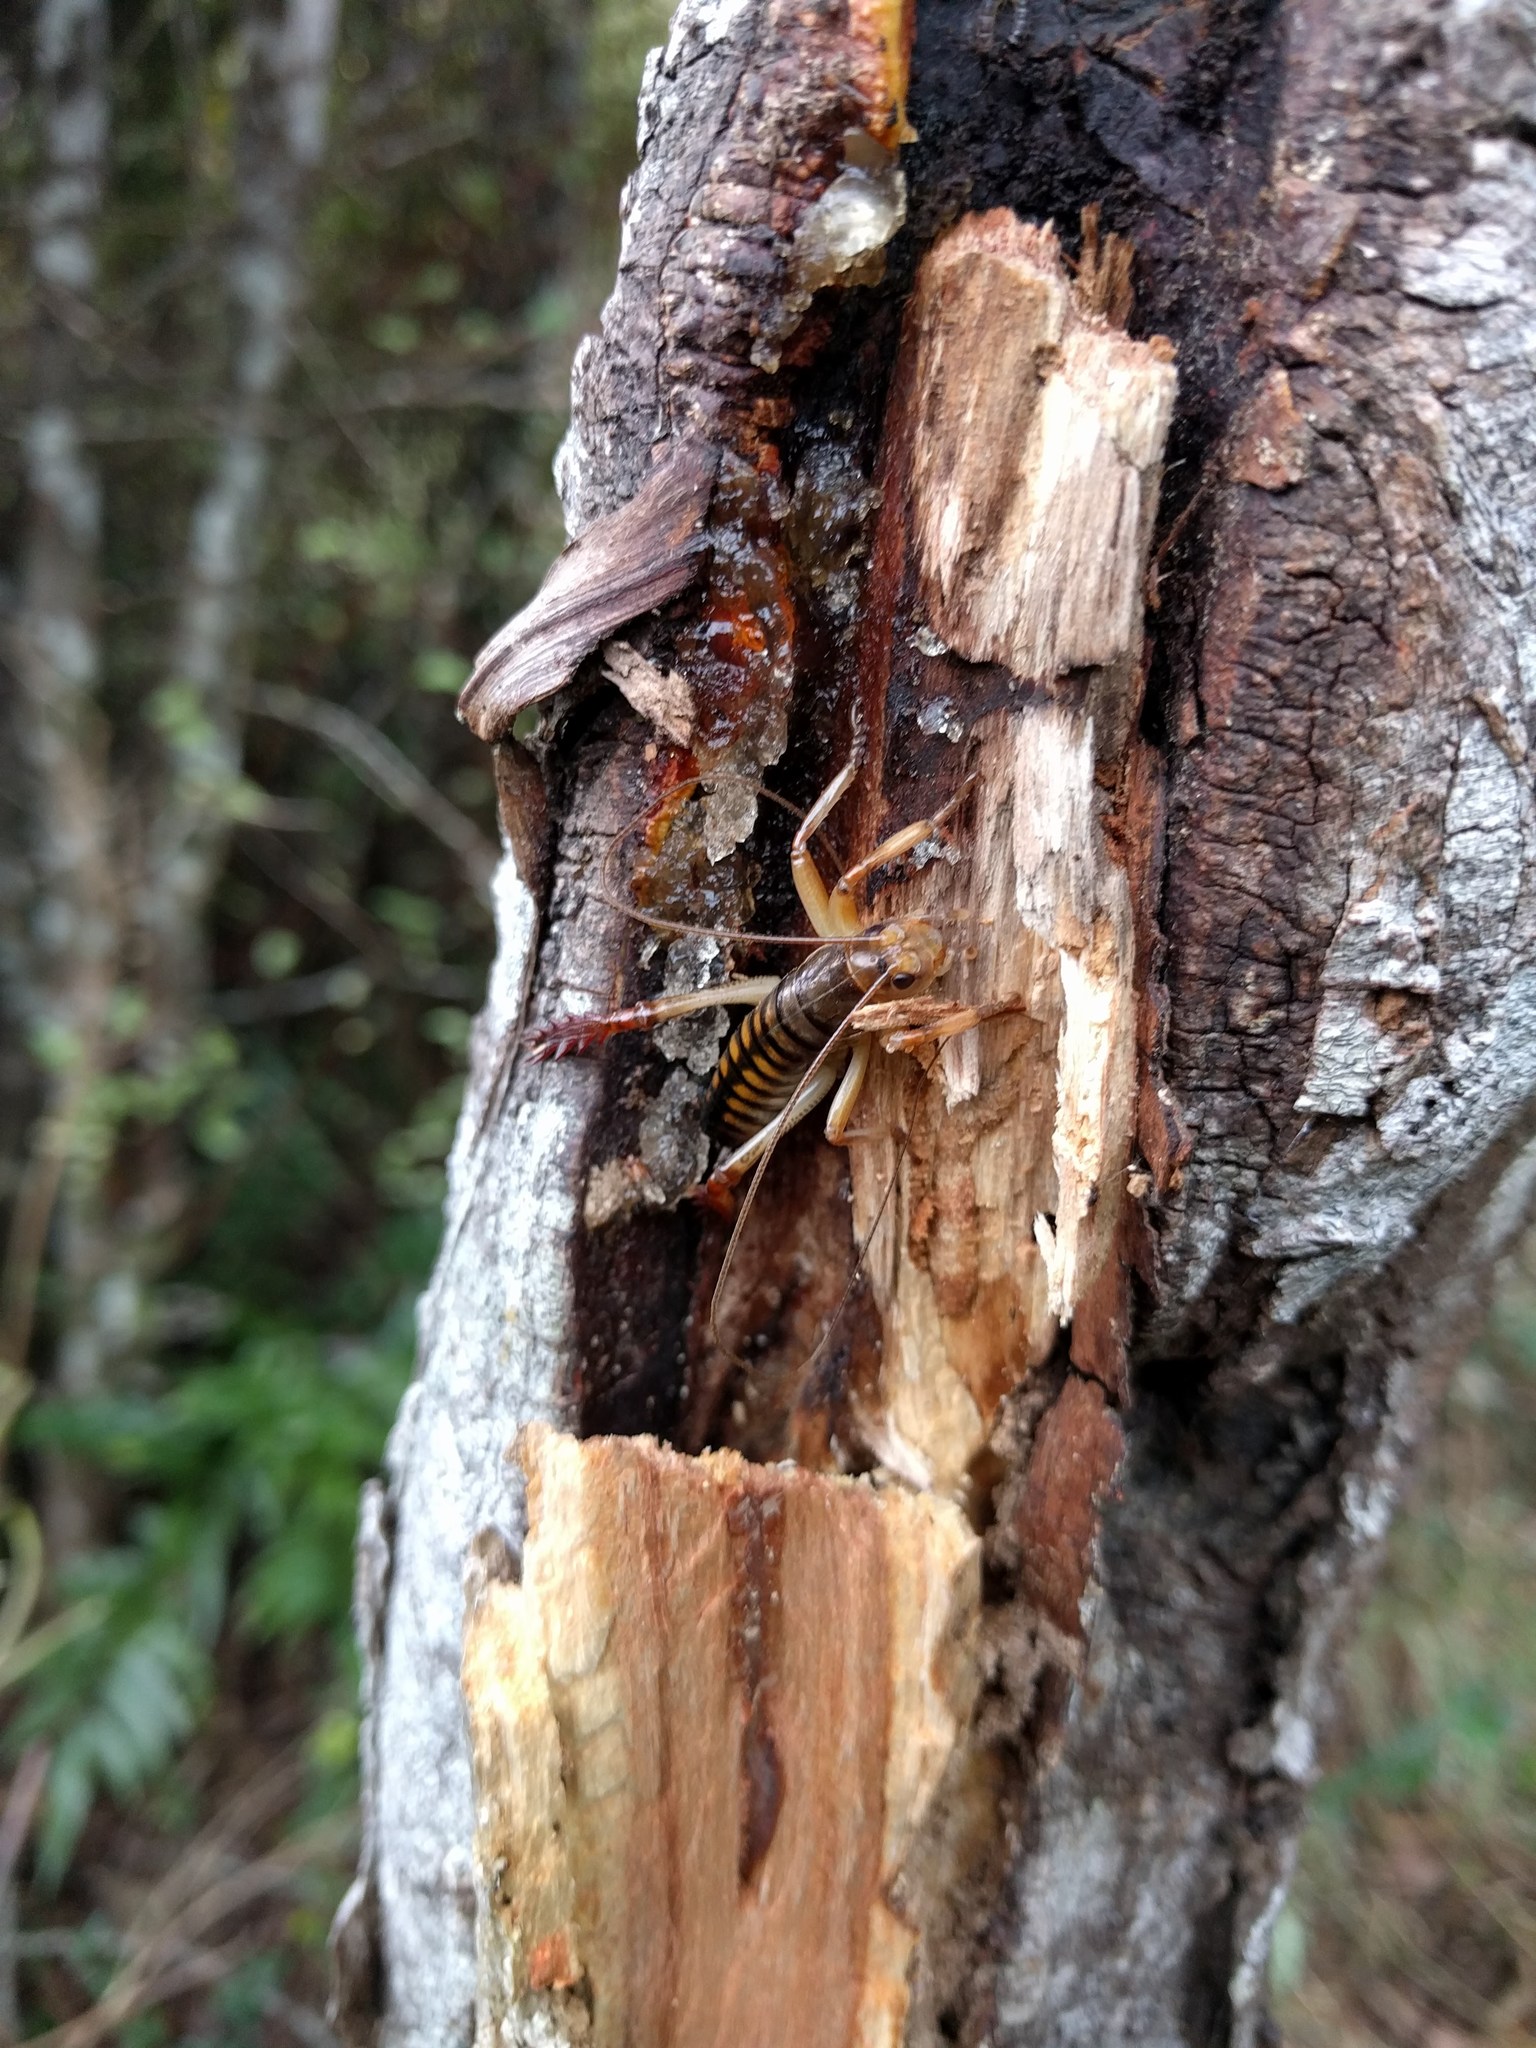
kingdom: Animalia
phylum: Arthropoda
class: Insecta
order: Orthoptera
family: Anostostomatidae
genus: Hemideina
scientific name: Hemideina crassidens
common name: Wellington tree weta
